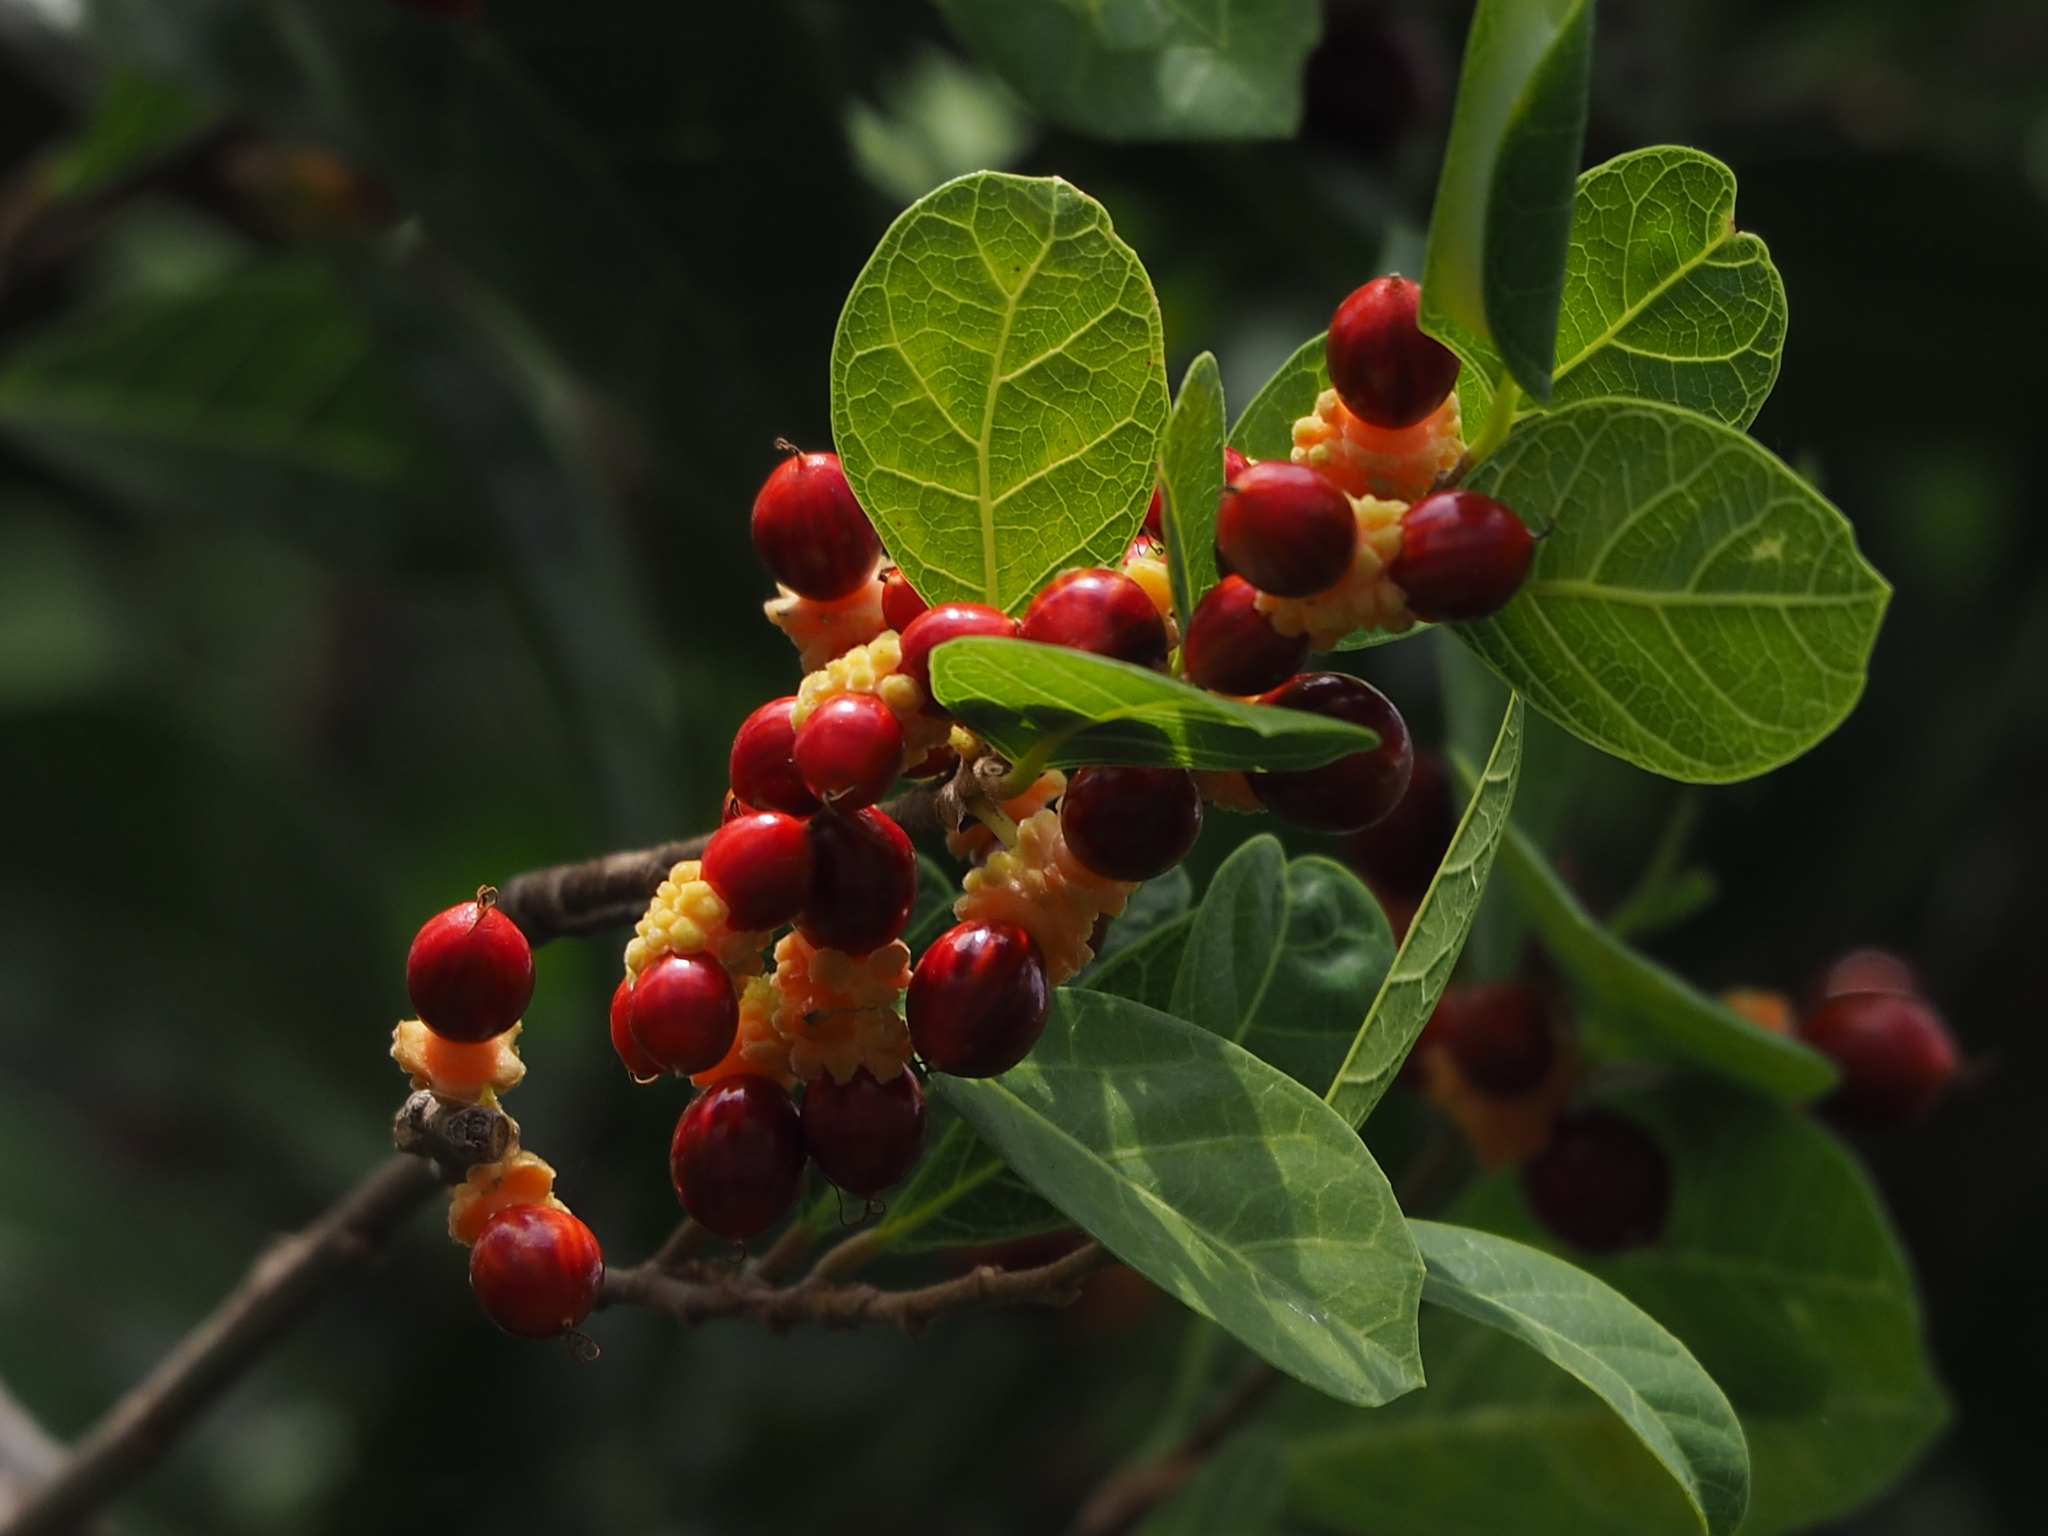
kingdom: Plantae
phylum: Tracheophyta
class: Magnoliopsida
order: Rosales
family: Moraceae
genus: Malaisia
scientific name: Malaisia scandens
